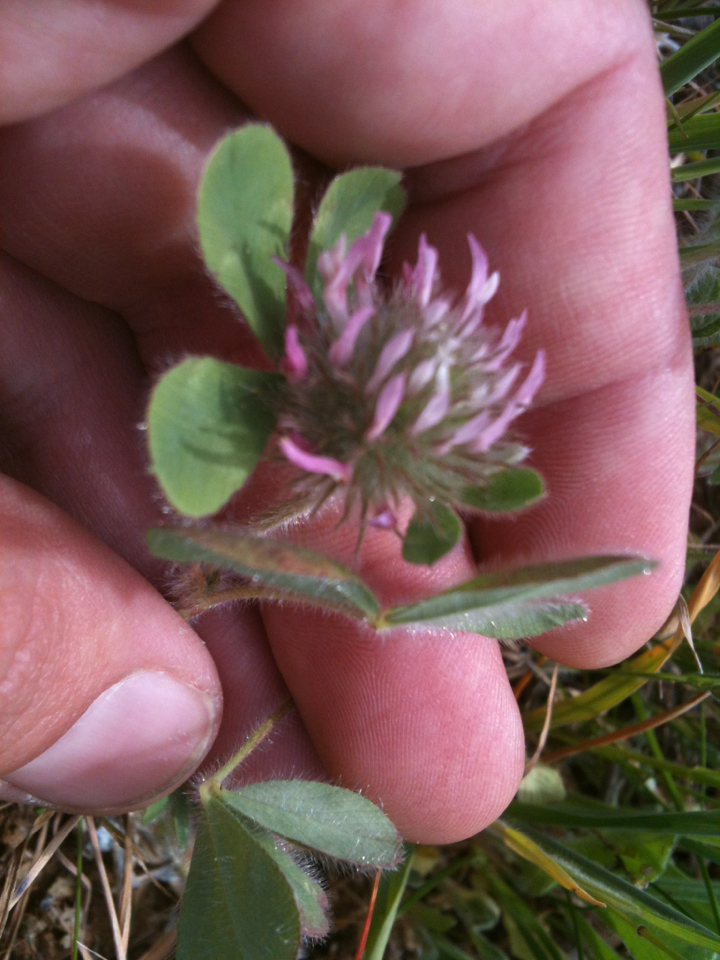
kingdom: Plantae
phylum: Tracheophyta
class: Magnoliopsida
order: Fabales
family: Fabaceae
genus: Trifolium
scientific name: Trifolium hirtum
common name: Rose clover
